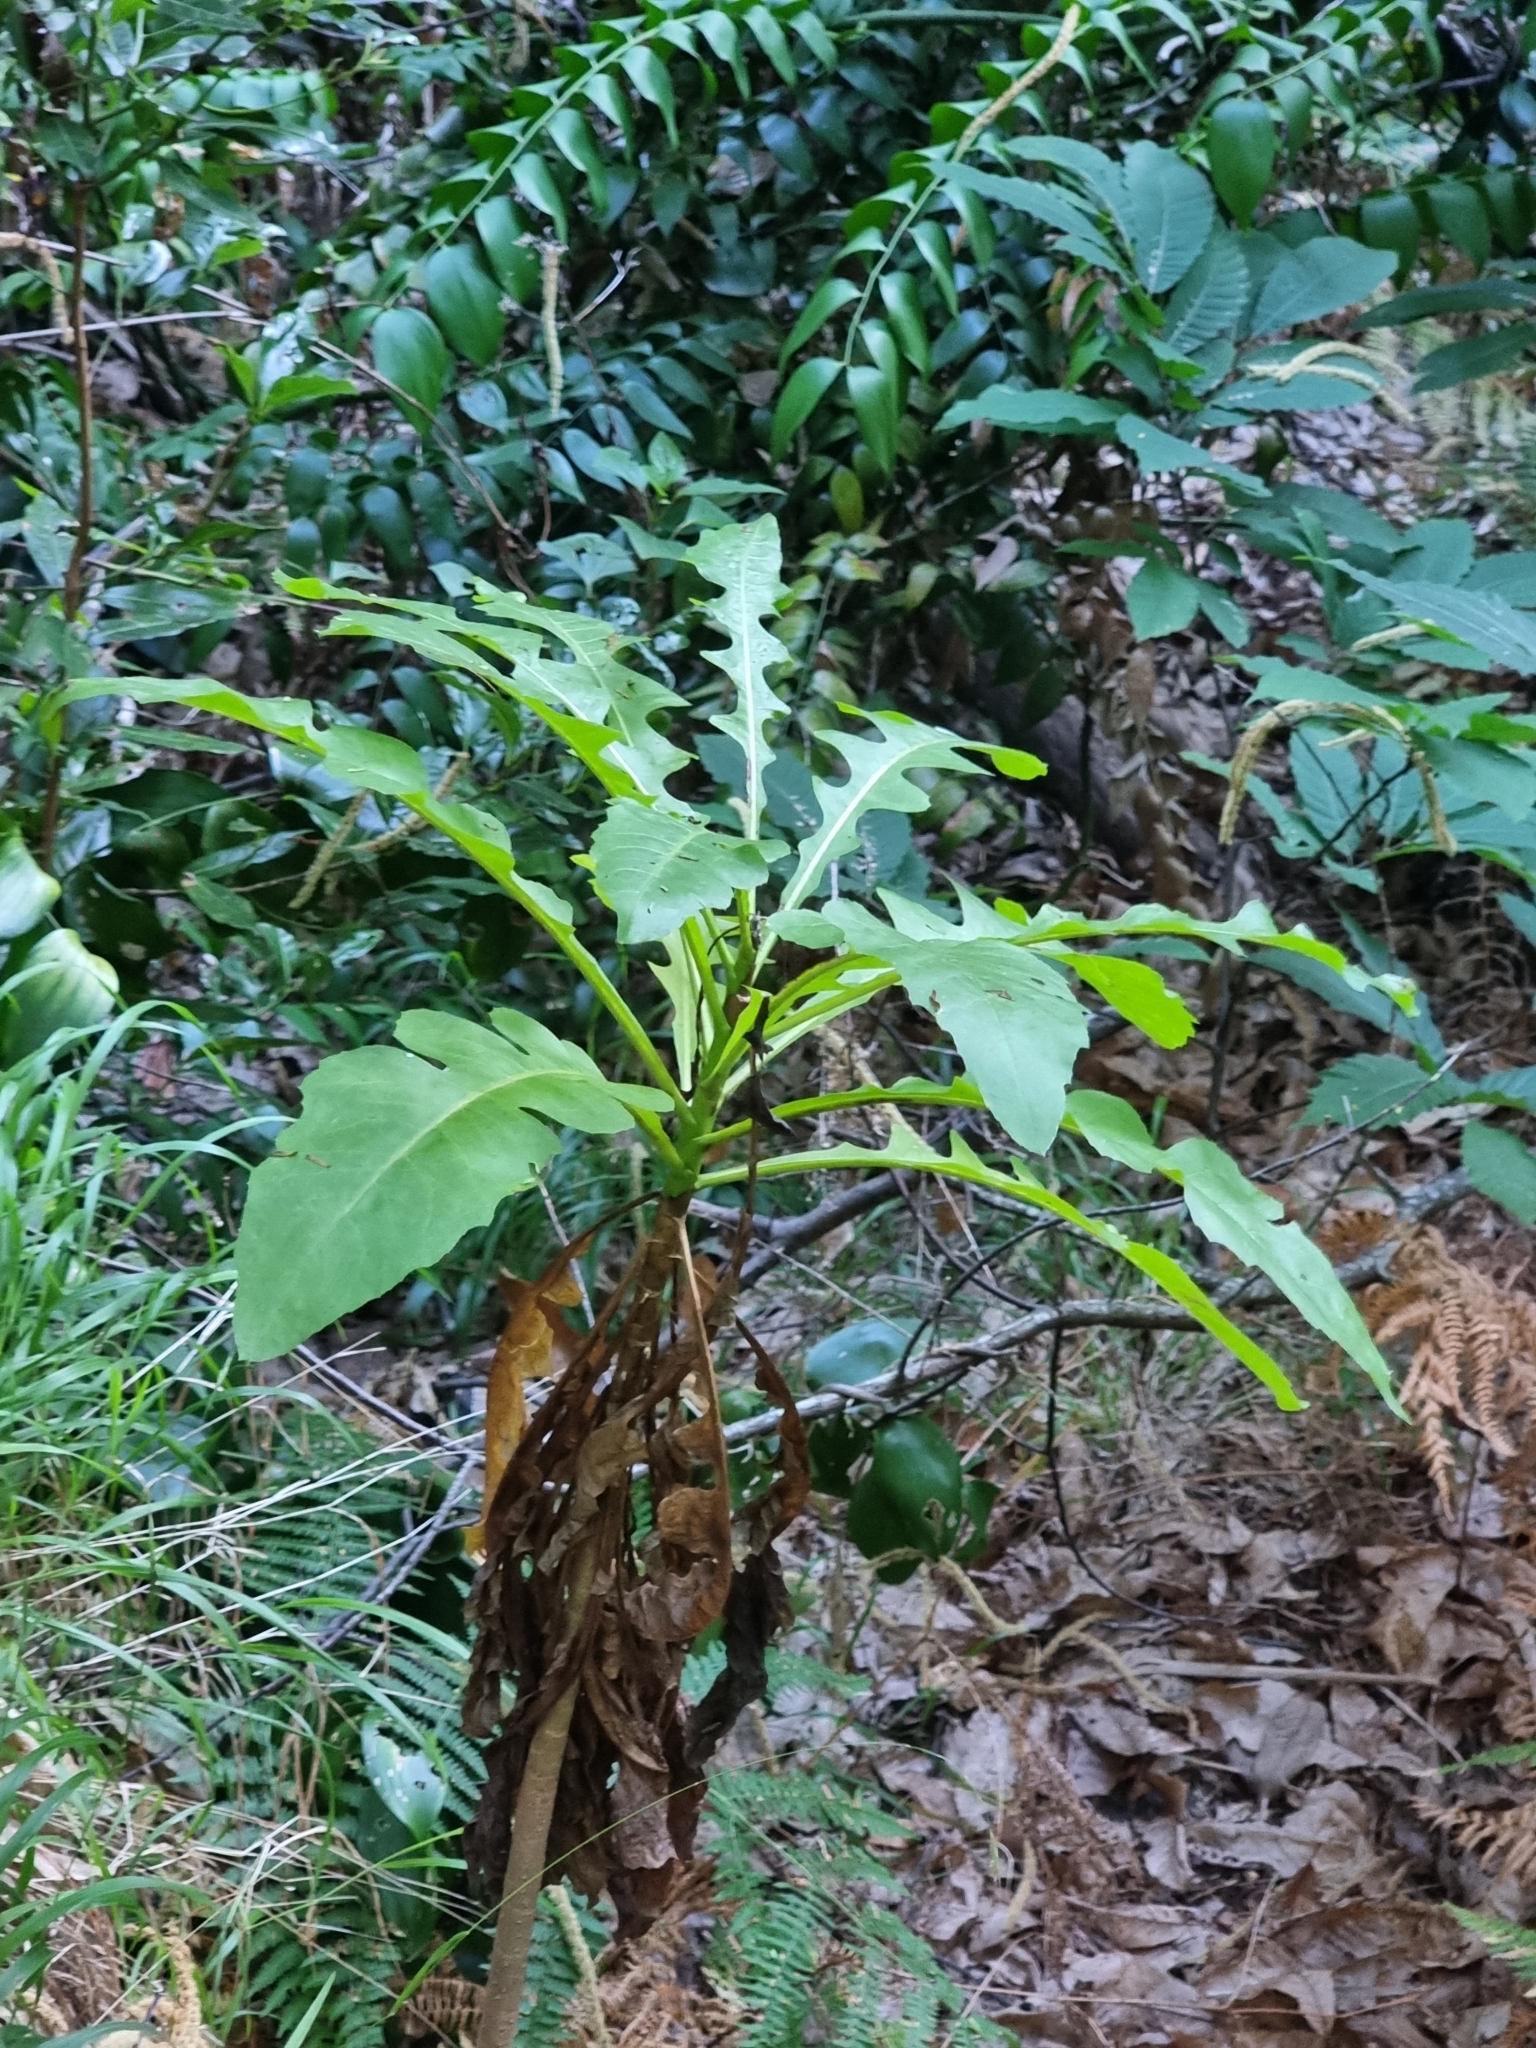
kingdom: Plantae
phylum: Tracheophyta
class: Magnoliopsida
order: Asterales
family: Asteraceae
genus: Sonchus
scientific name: Sonchus fruticosus
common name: Shrubby sow-thistle
